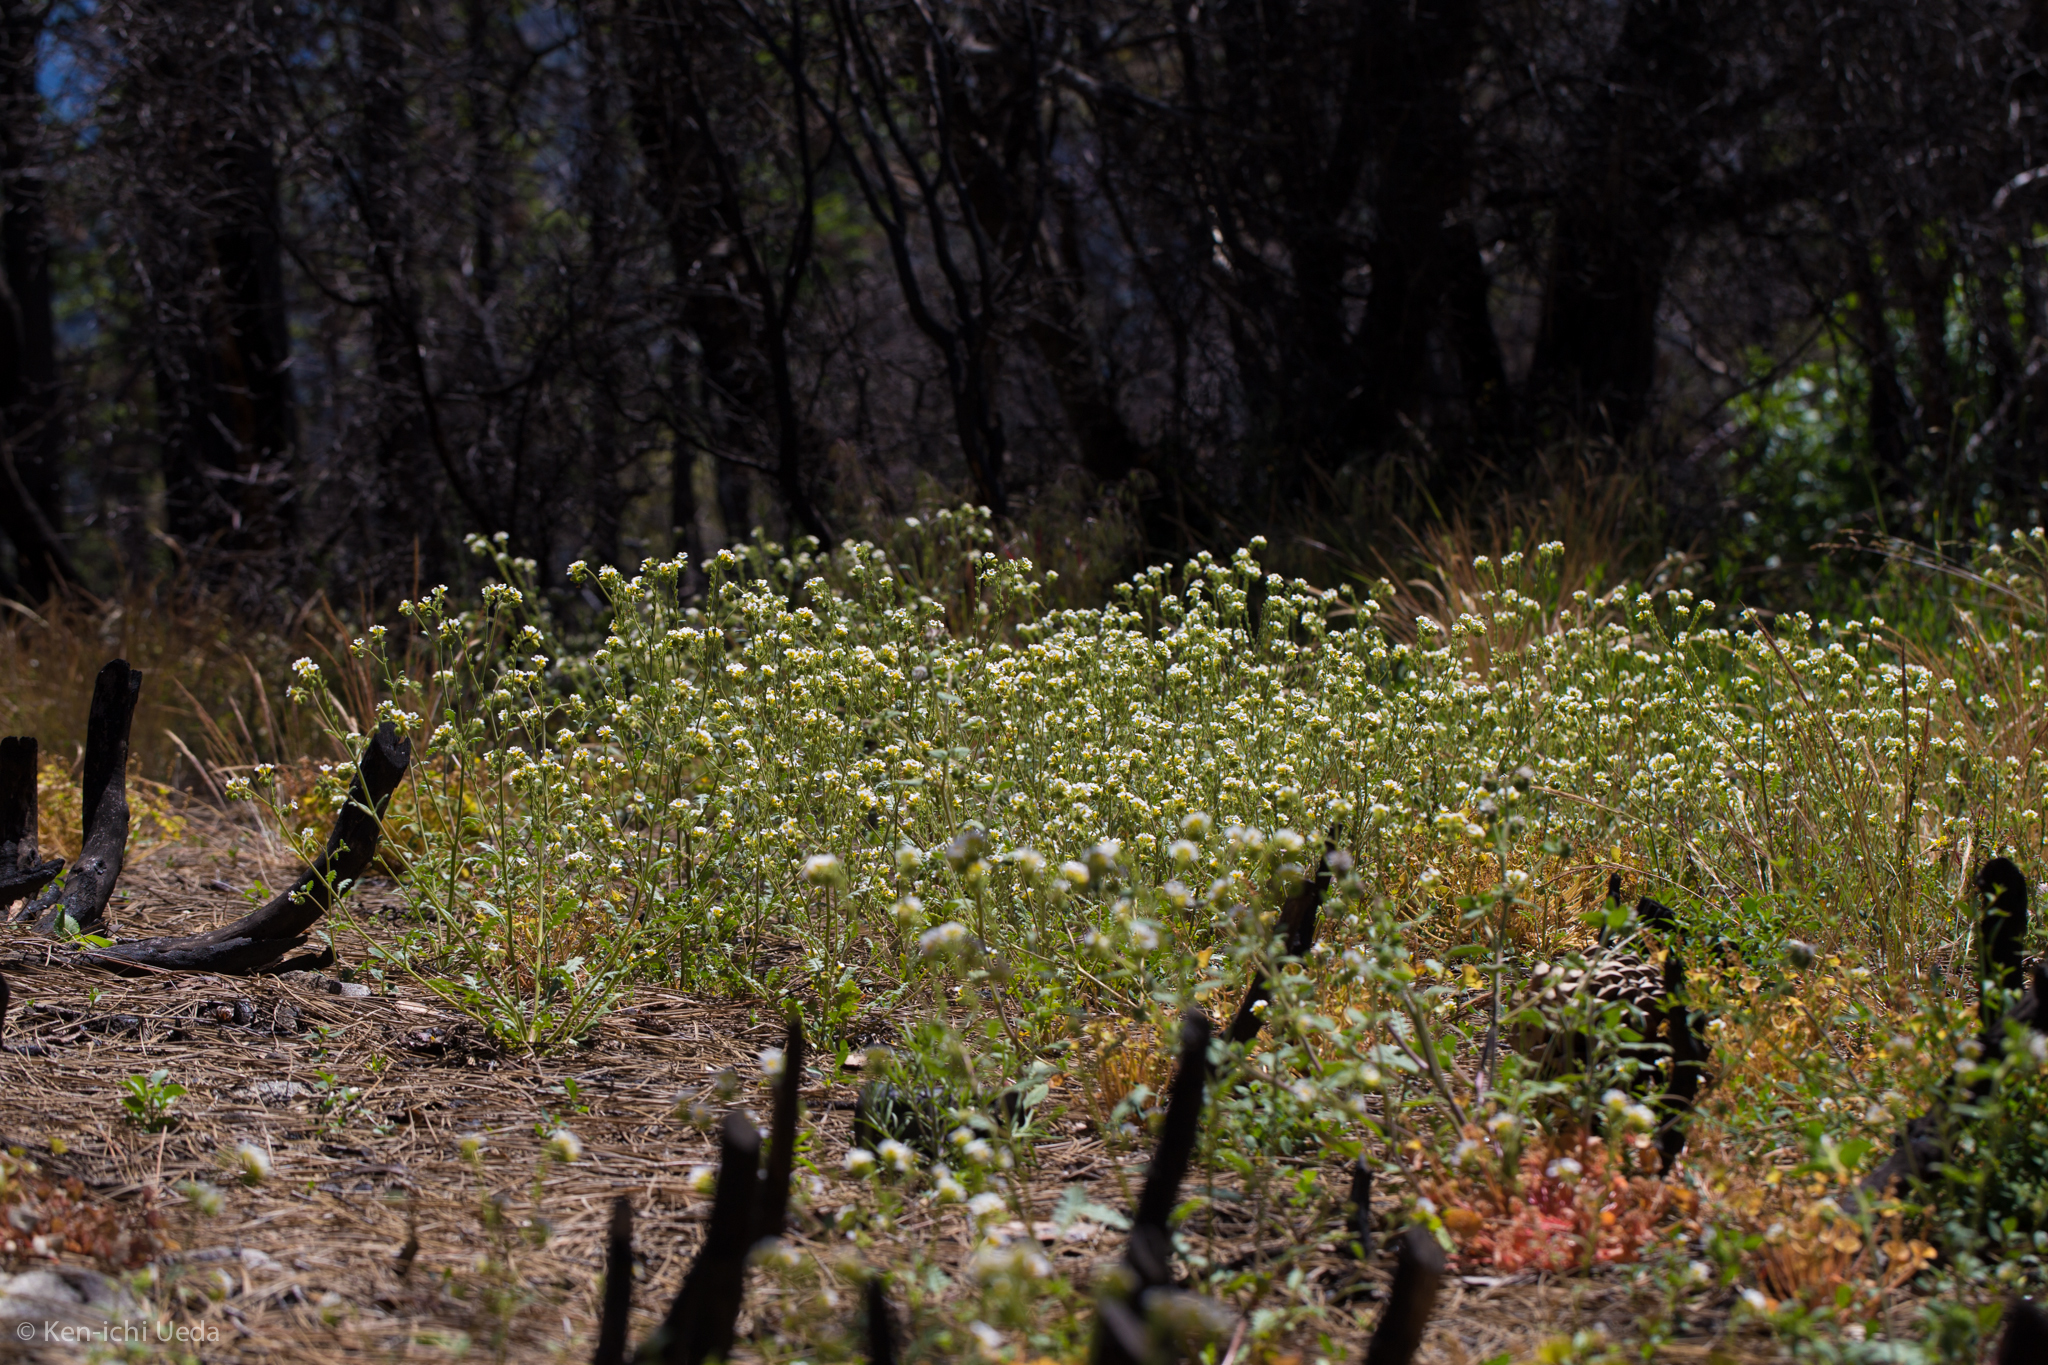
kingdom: Plantae
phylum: Tracheophyta
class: Magnoliopsida
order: Boraginales
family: Hydrophyllaceae
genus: Phacelia
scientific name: Phacelia brachyloba
